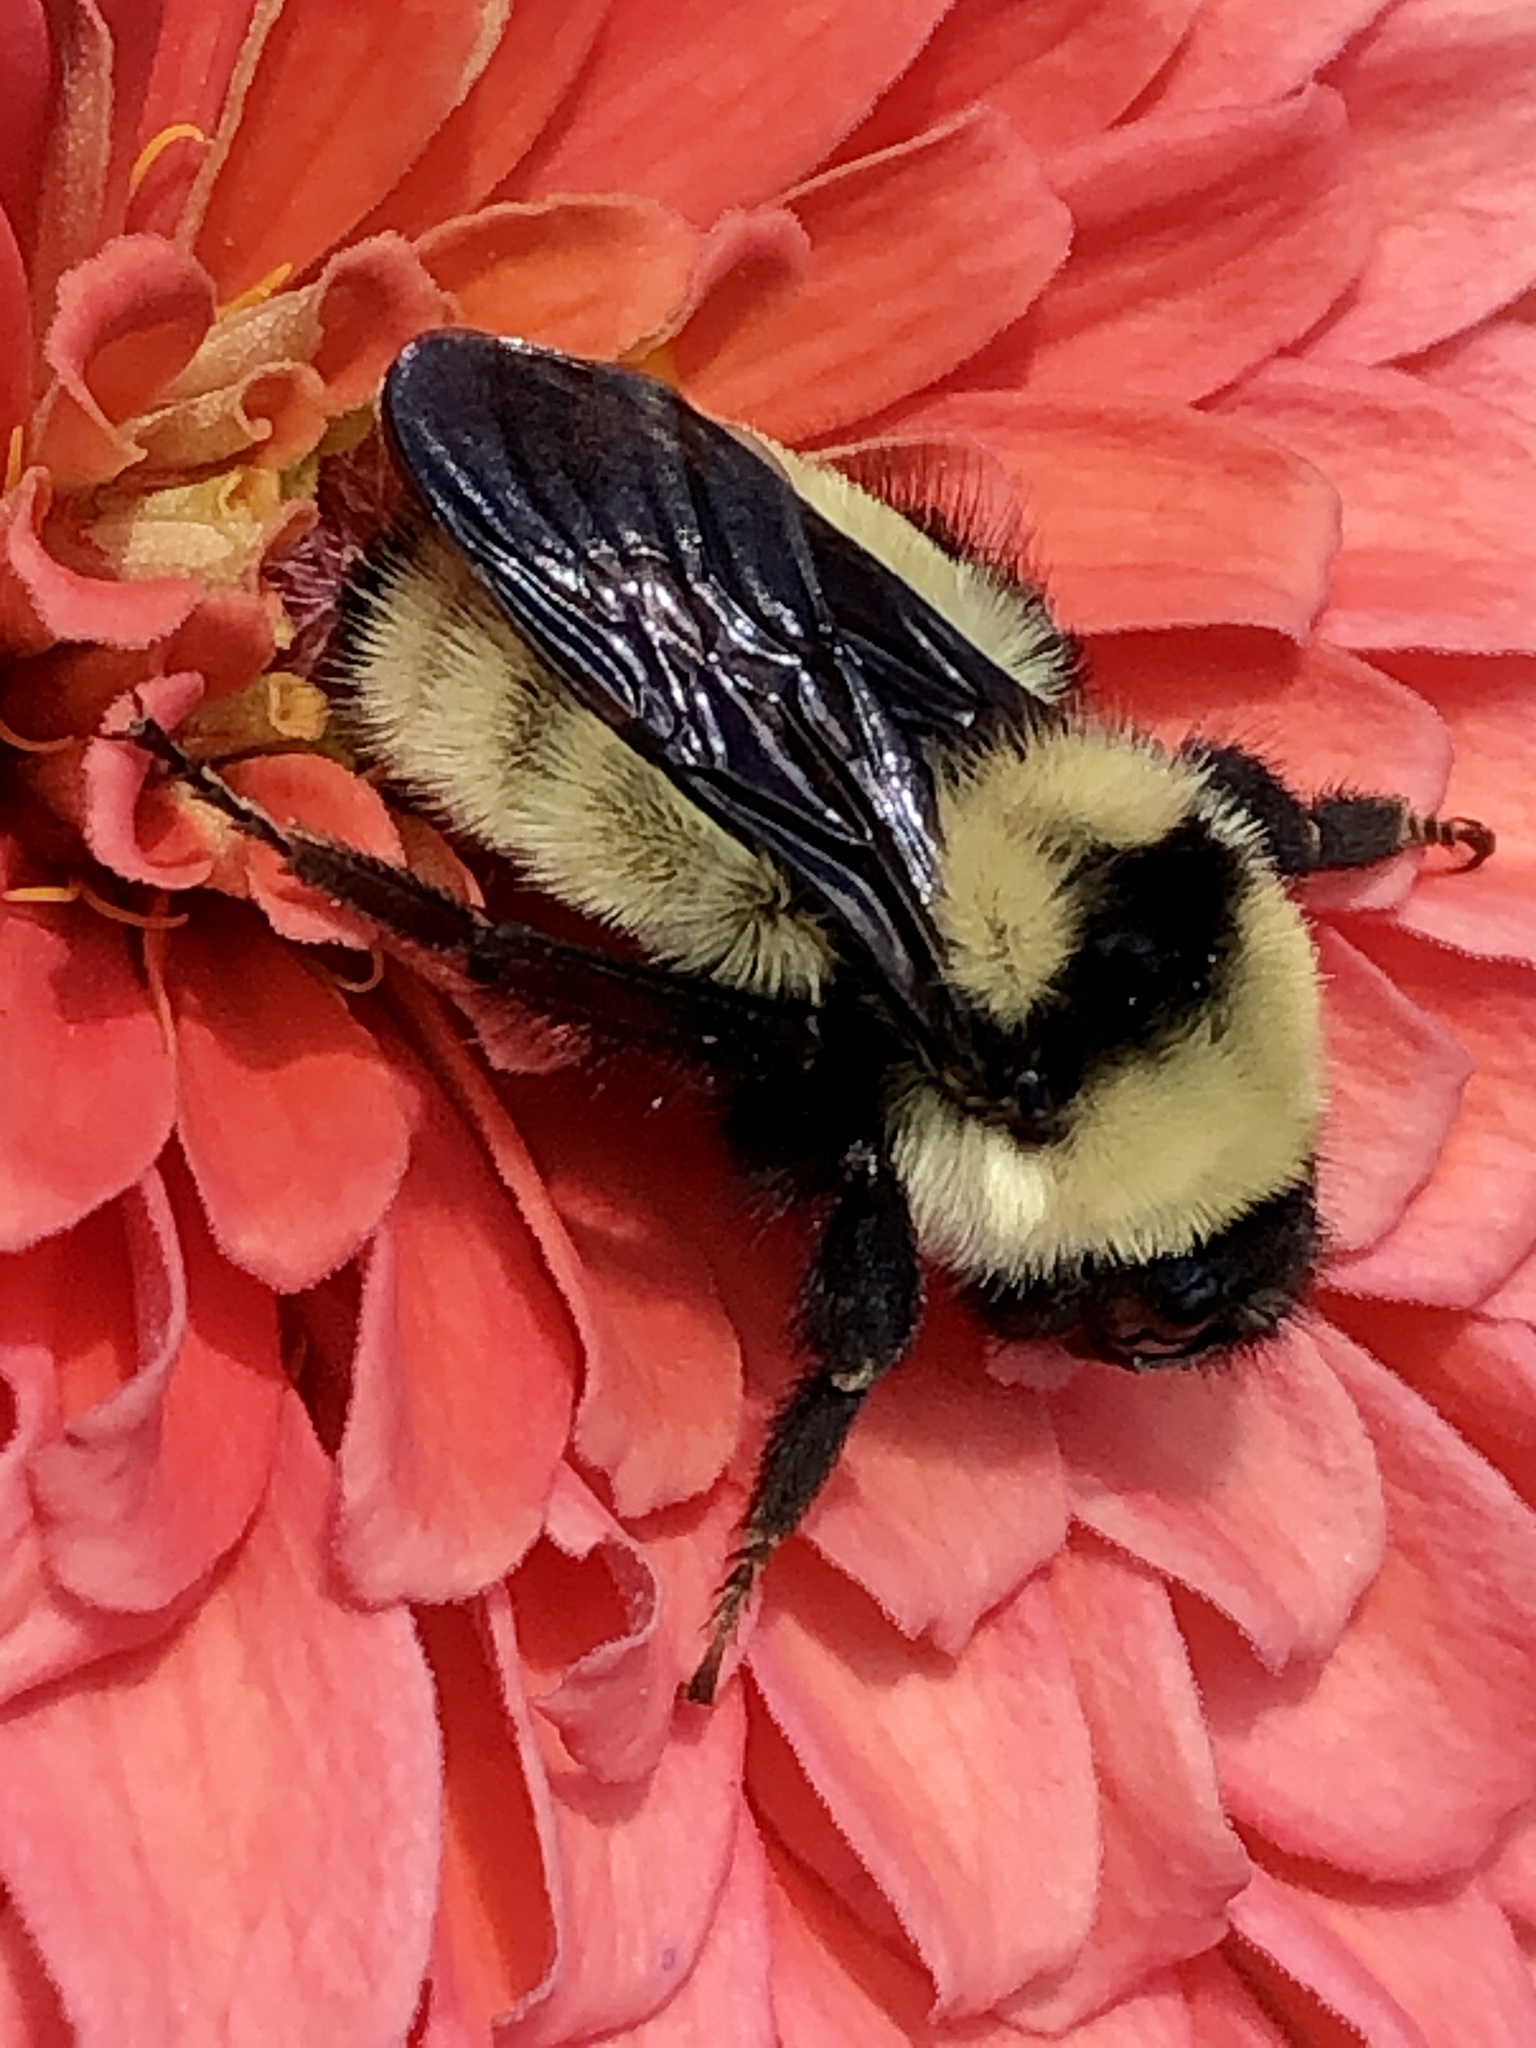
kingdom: Animalia
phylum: Arthropoda
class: Insecta
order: Hymenoptera
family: Apidae
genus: Bombus
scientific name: Bombus fervidus
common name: Yellow bumble bee
